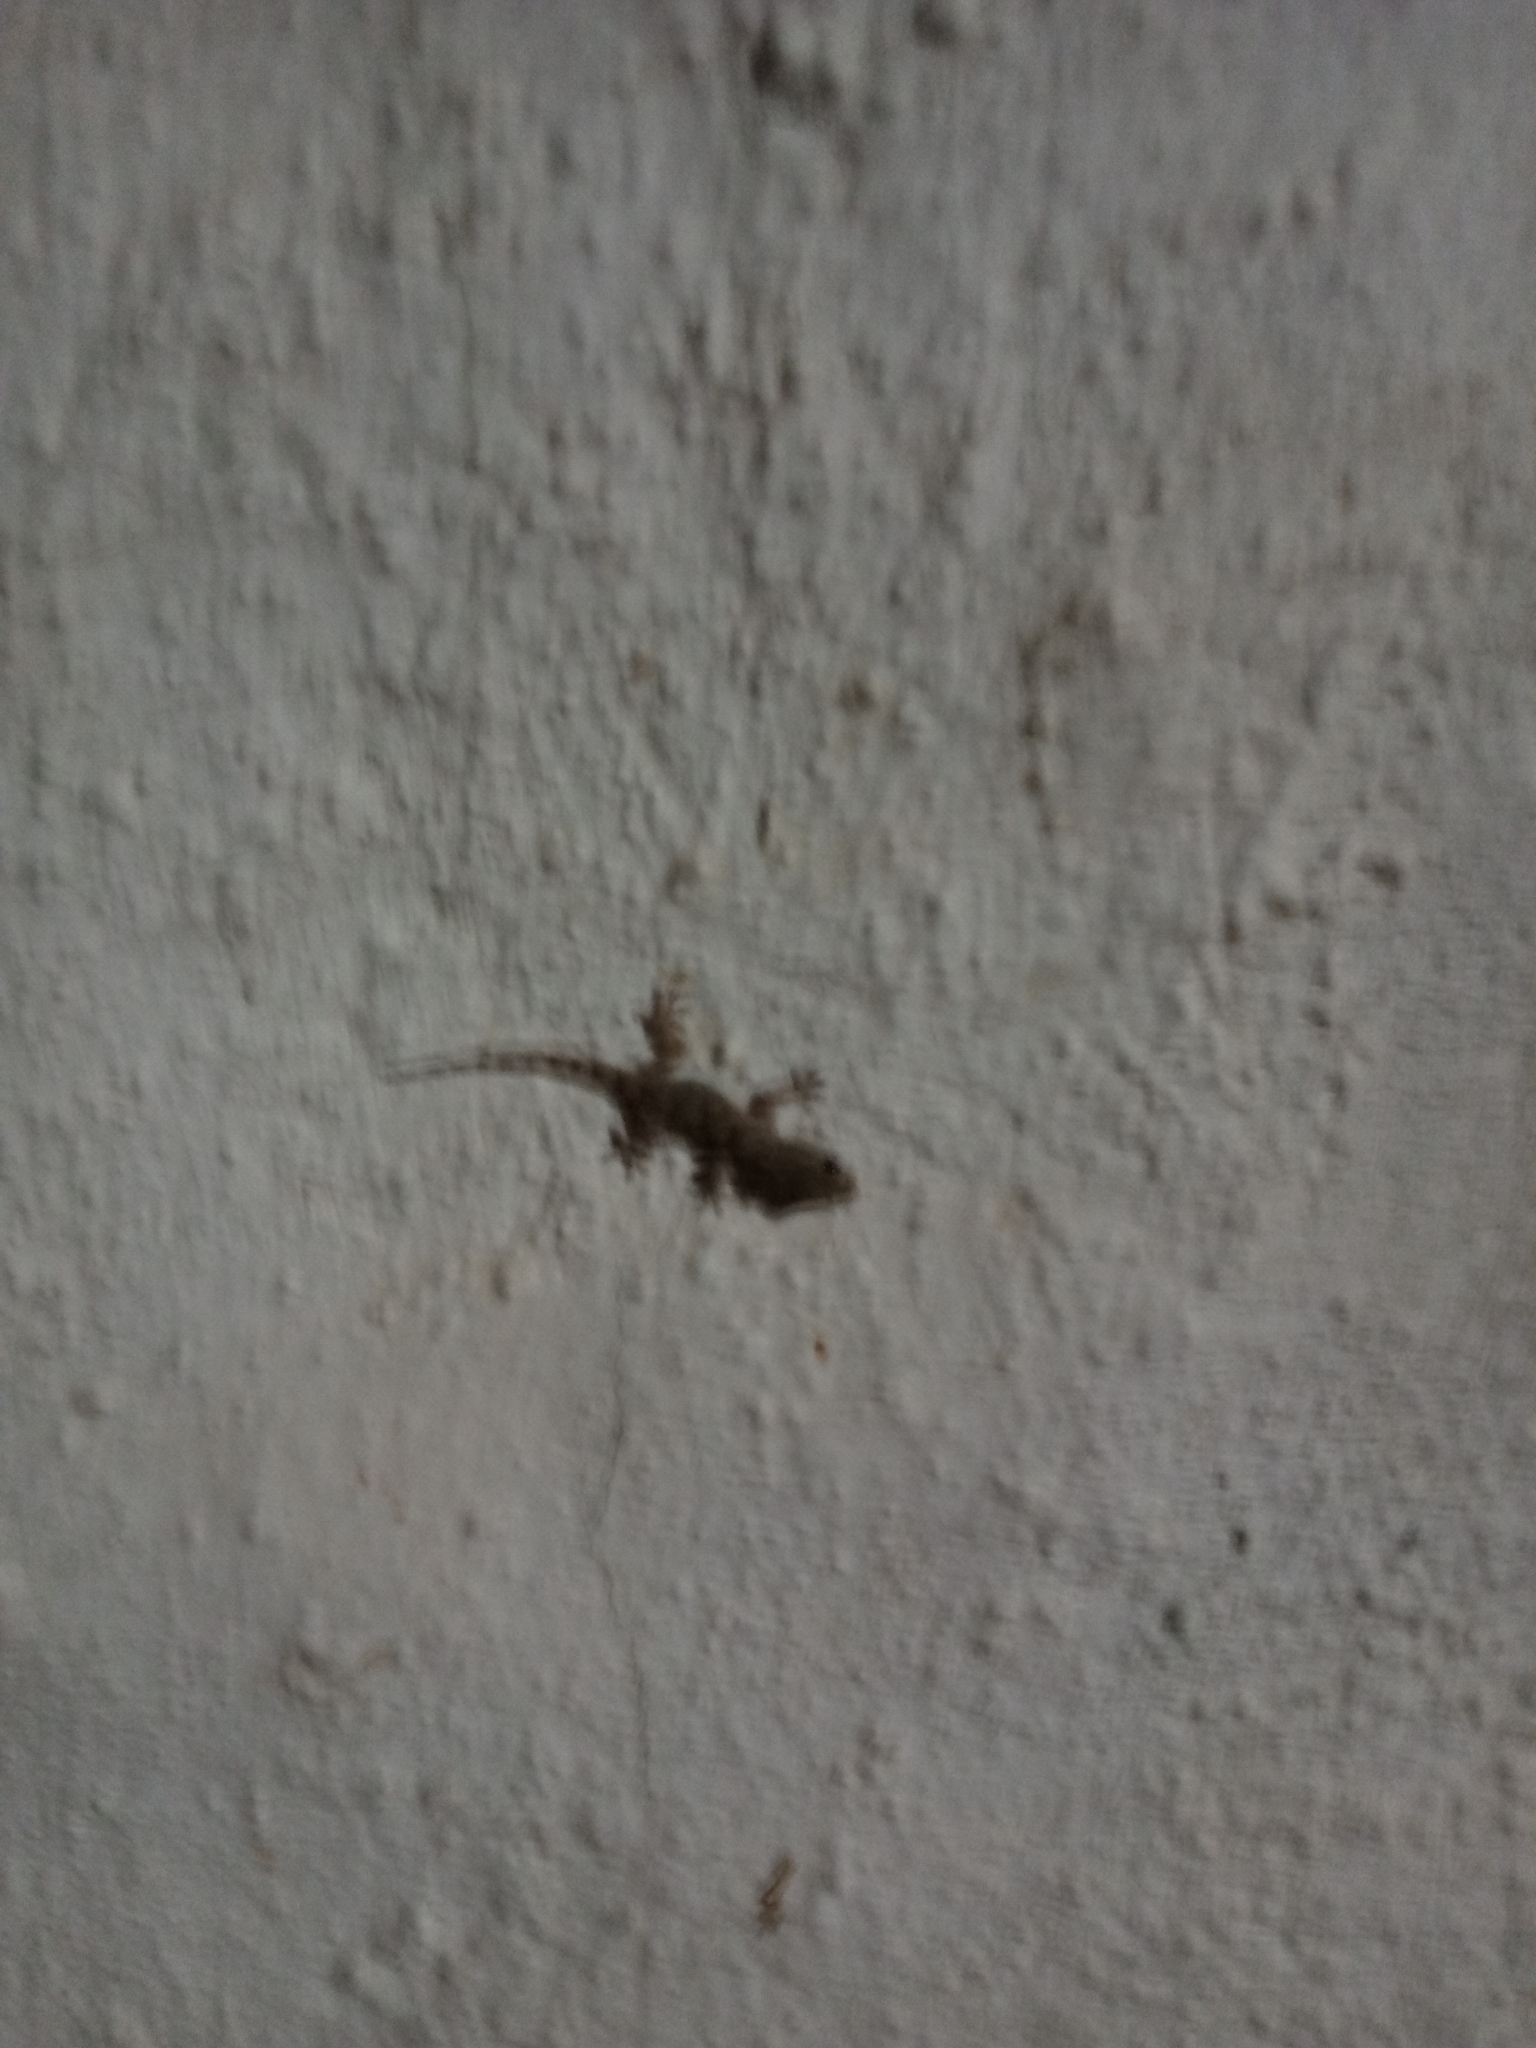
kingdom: Animalia
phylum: Chordata
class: Squamata
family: Phyllodactylidae
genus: Tarentola
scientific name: Tarentola mauritanica
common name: Moorish gecko
